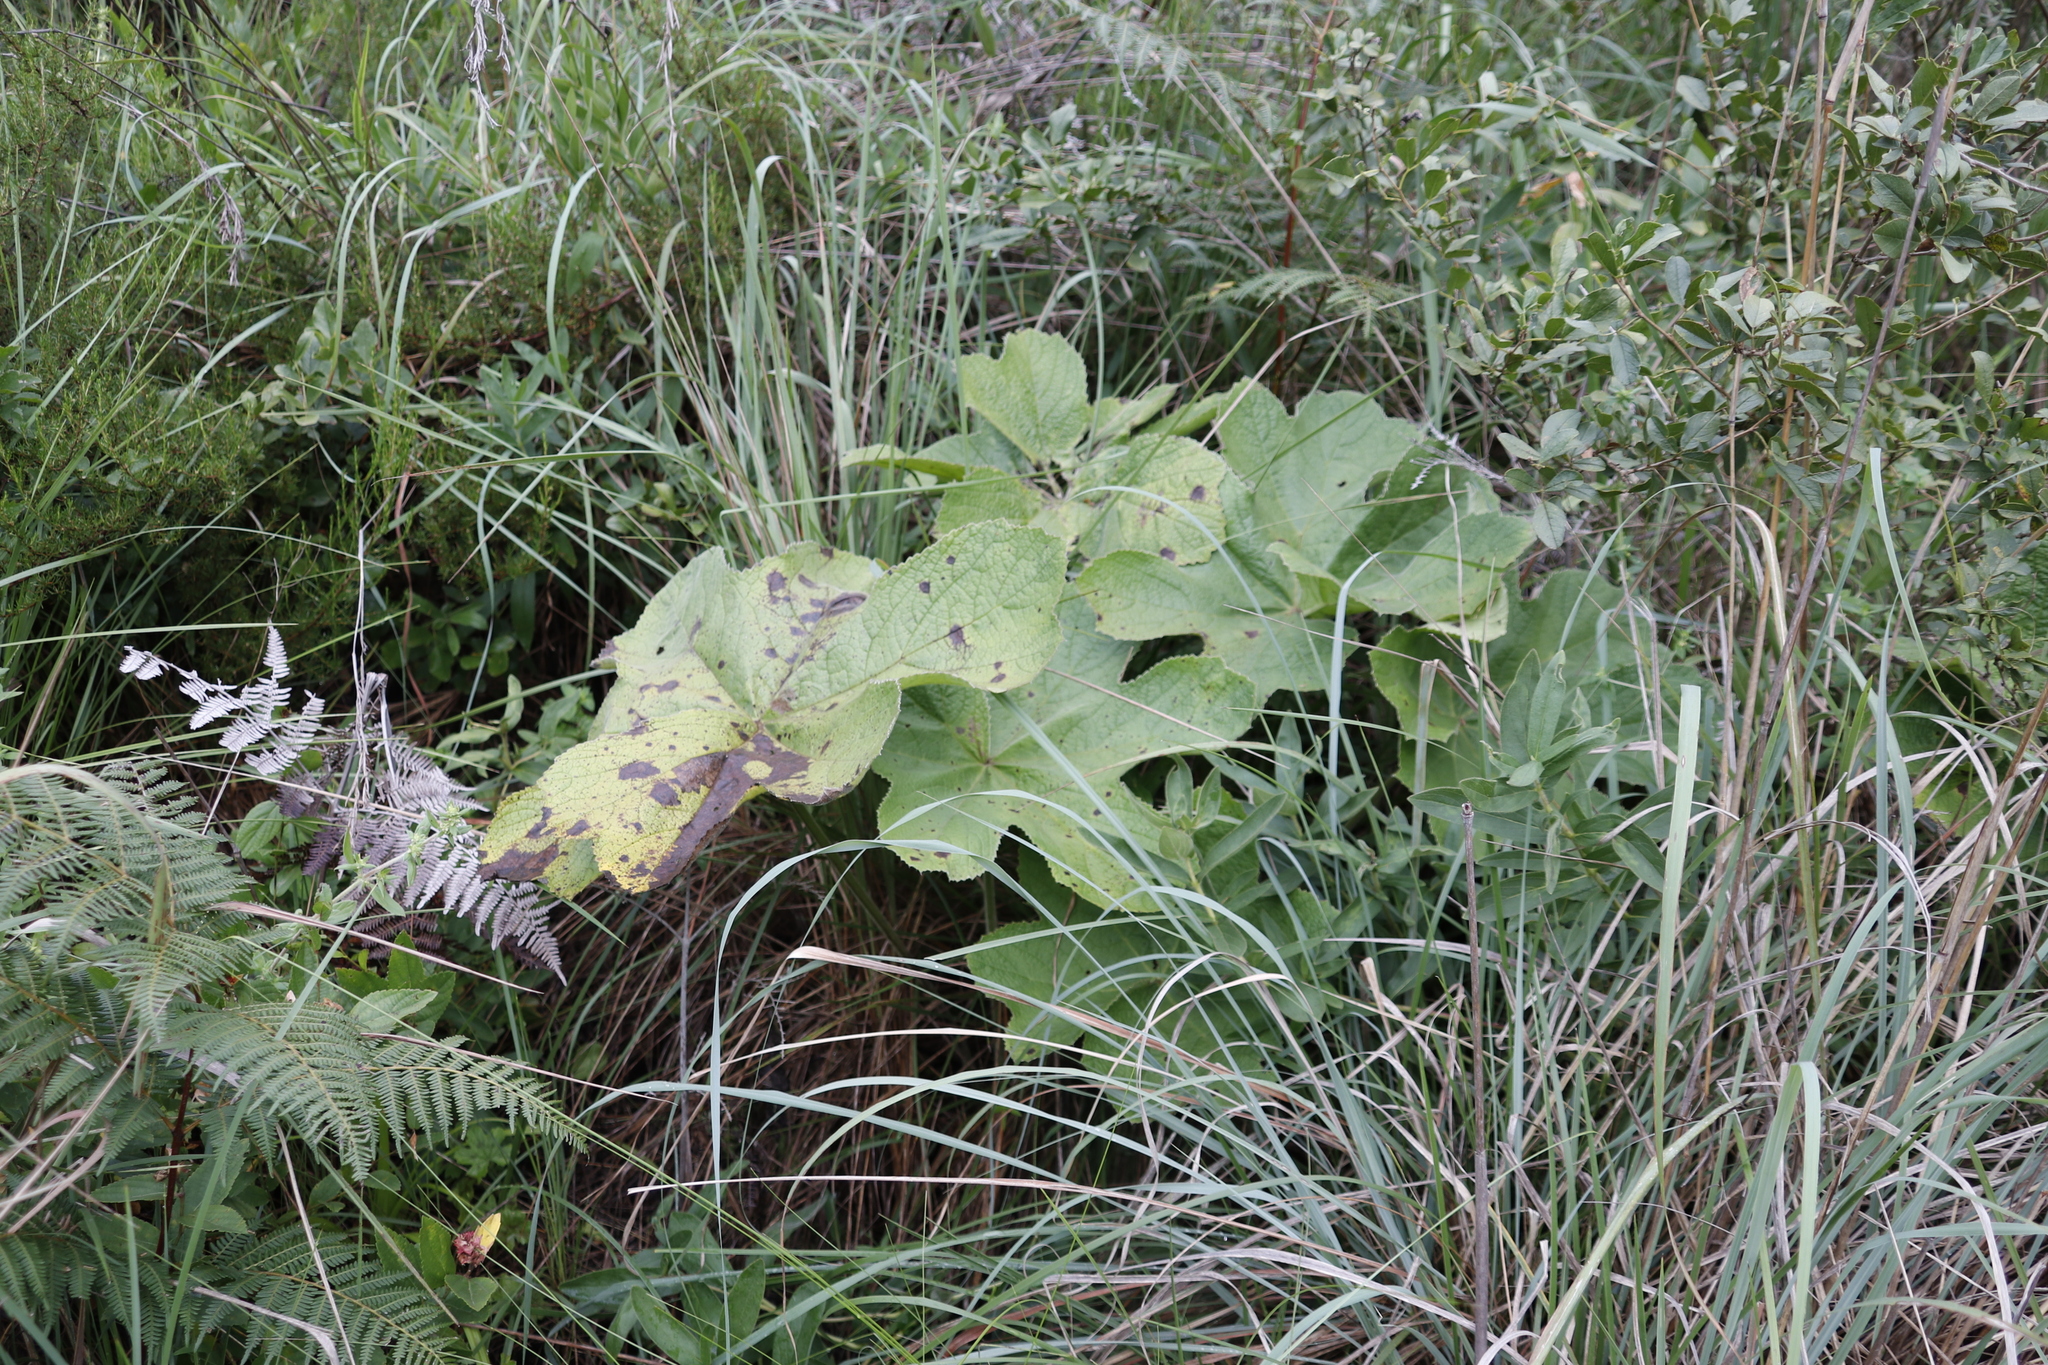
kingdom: Plantae
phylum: Tracheophyta
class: Magnoliopsida
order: Ranunculales
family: Ranunculaceae
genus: Knowltonia
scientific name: Knowltonia fanninii
